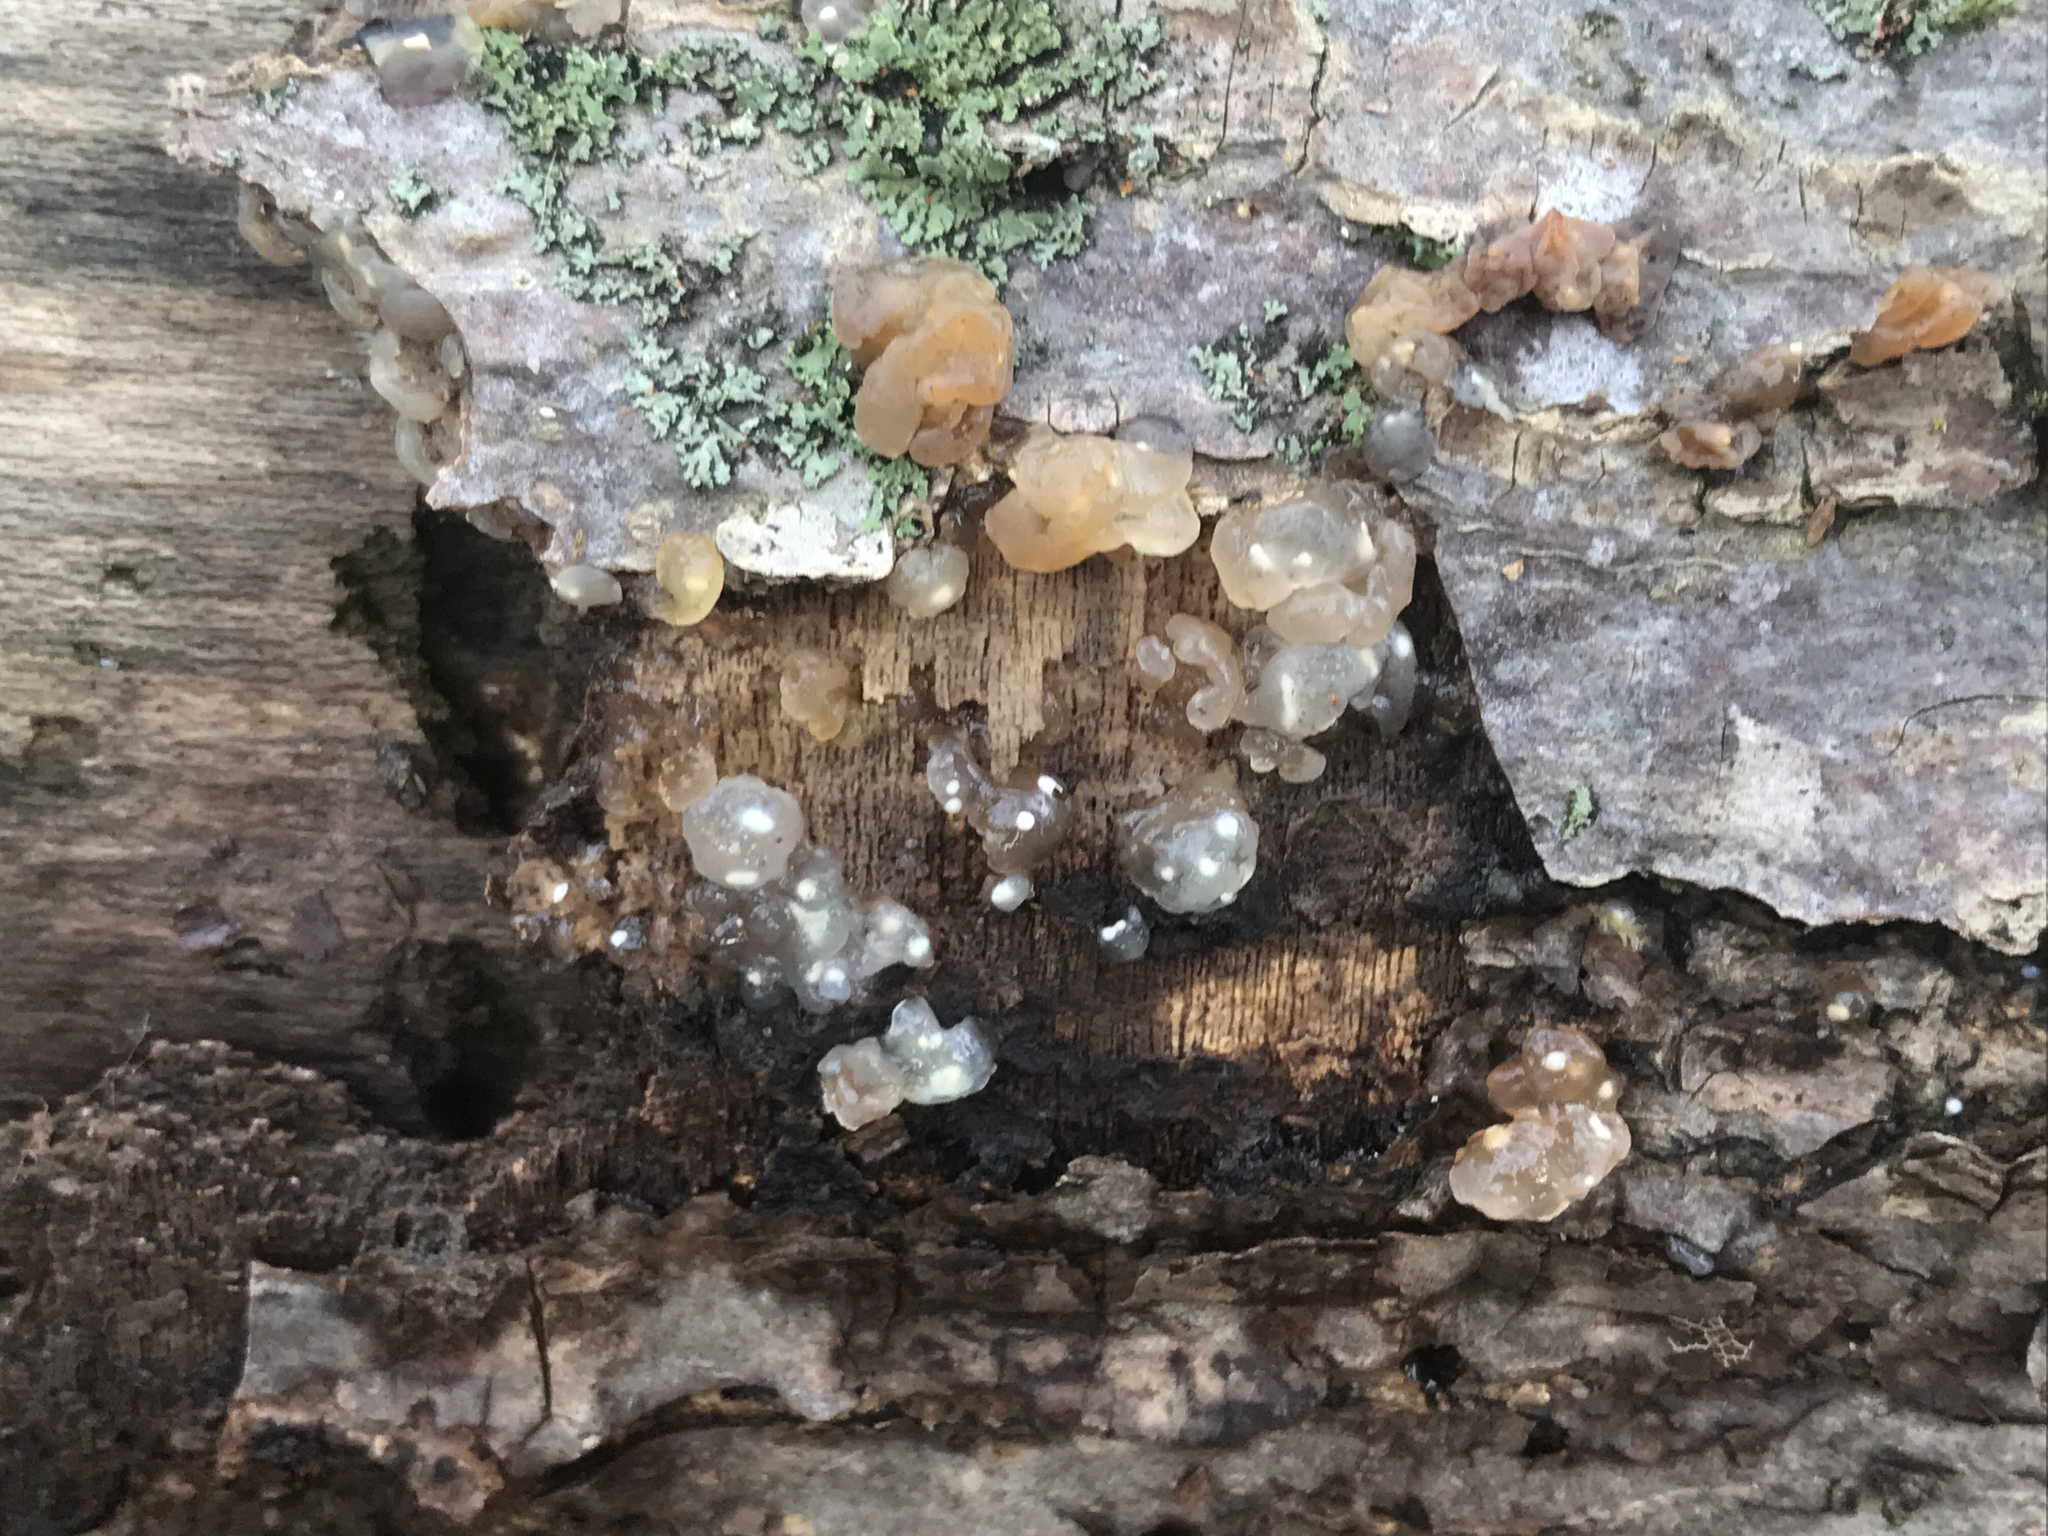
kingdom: Fungi
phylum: Basidiomycota
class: Agaricomycetes
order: Auriculariales
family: Hyaloriaceae
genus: Myxarium
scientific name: Myxarium nucleatum
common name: Crystal brain fungus
